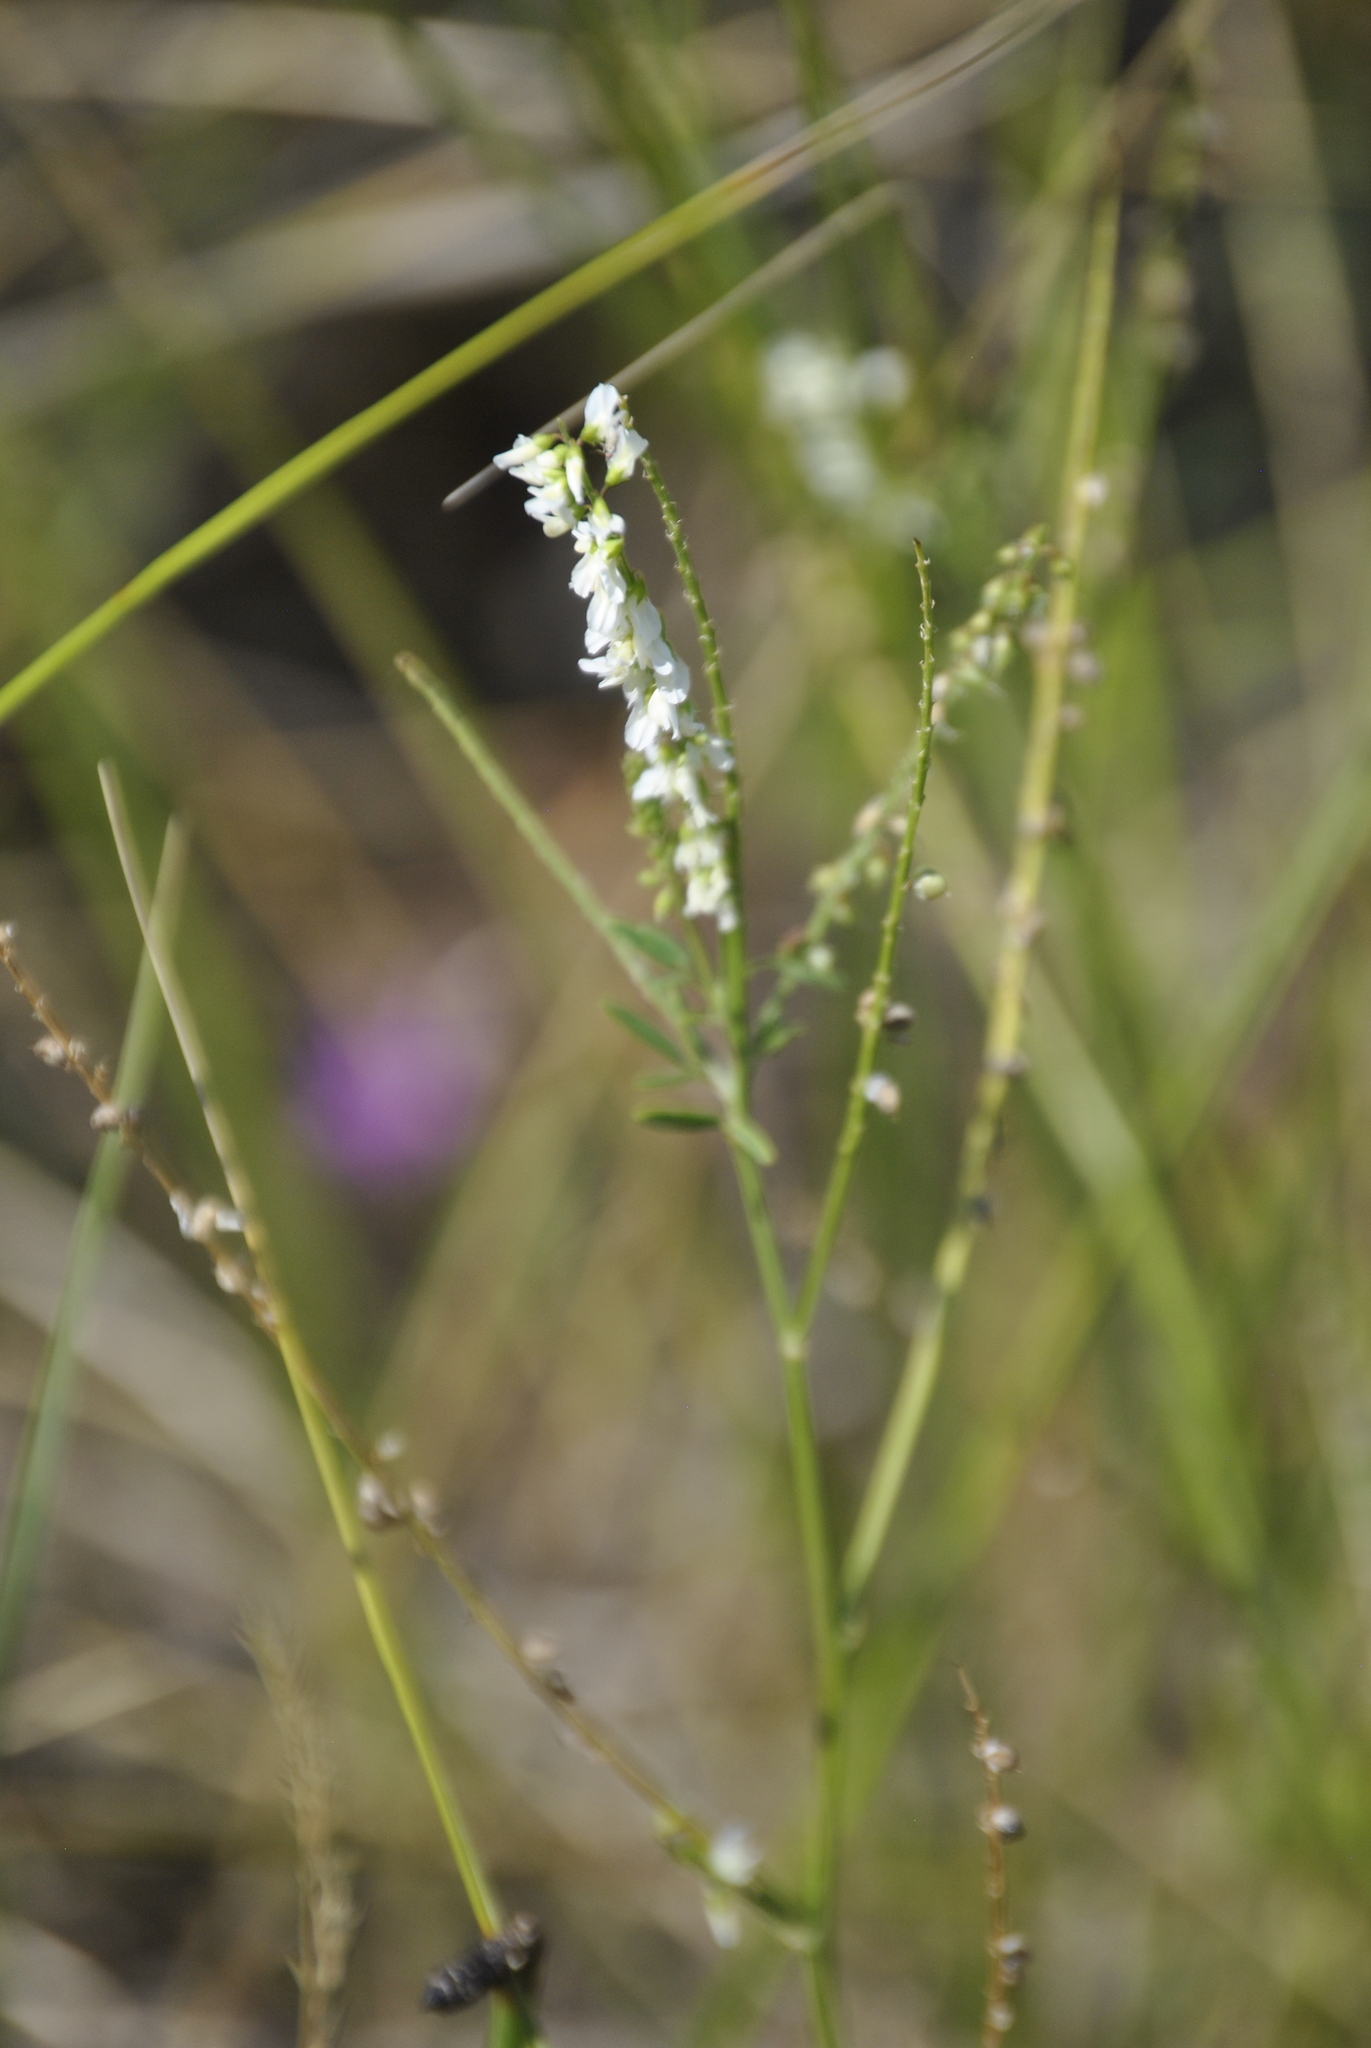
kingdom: Plantae
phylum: Tracheophyta
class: Magnoliopsida
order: Fabales
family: Fabaceae
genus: Melilotus
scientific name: Melilotus albus
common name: White melilot
